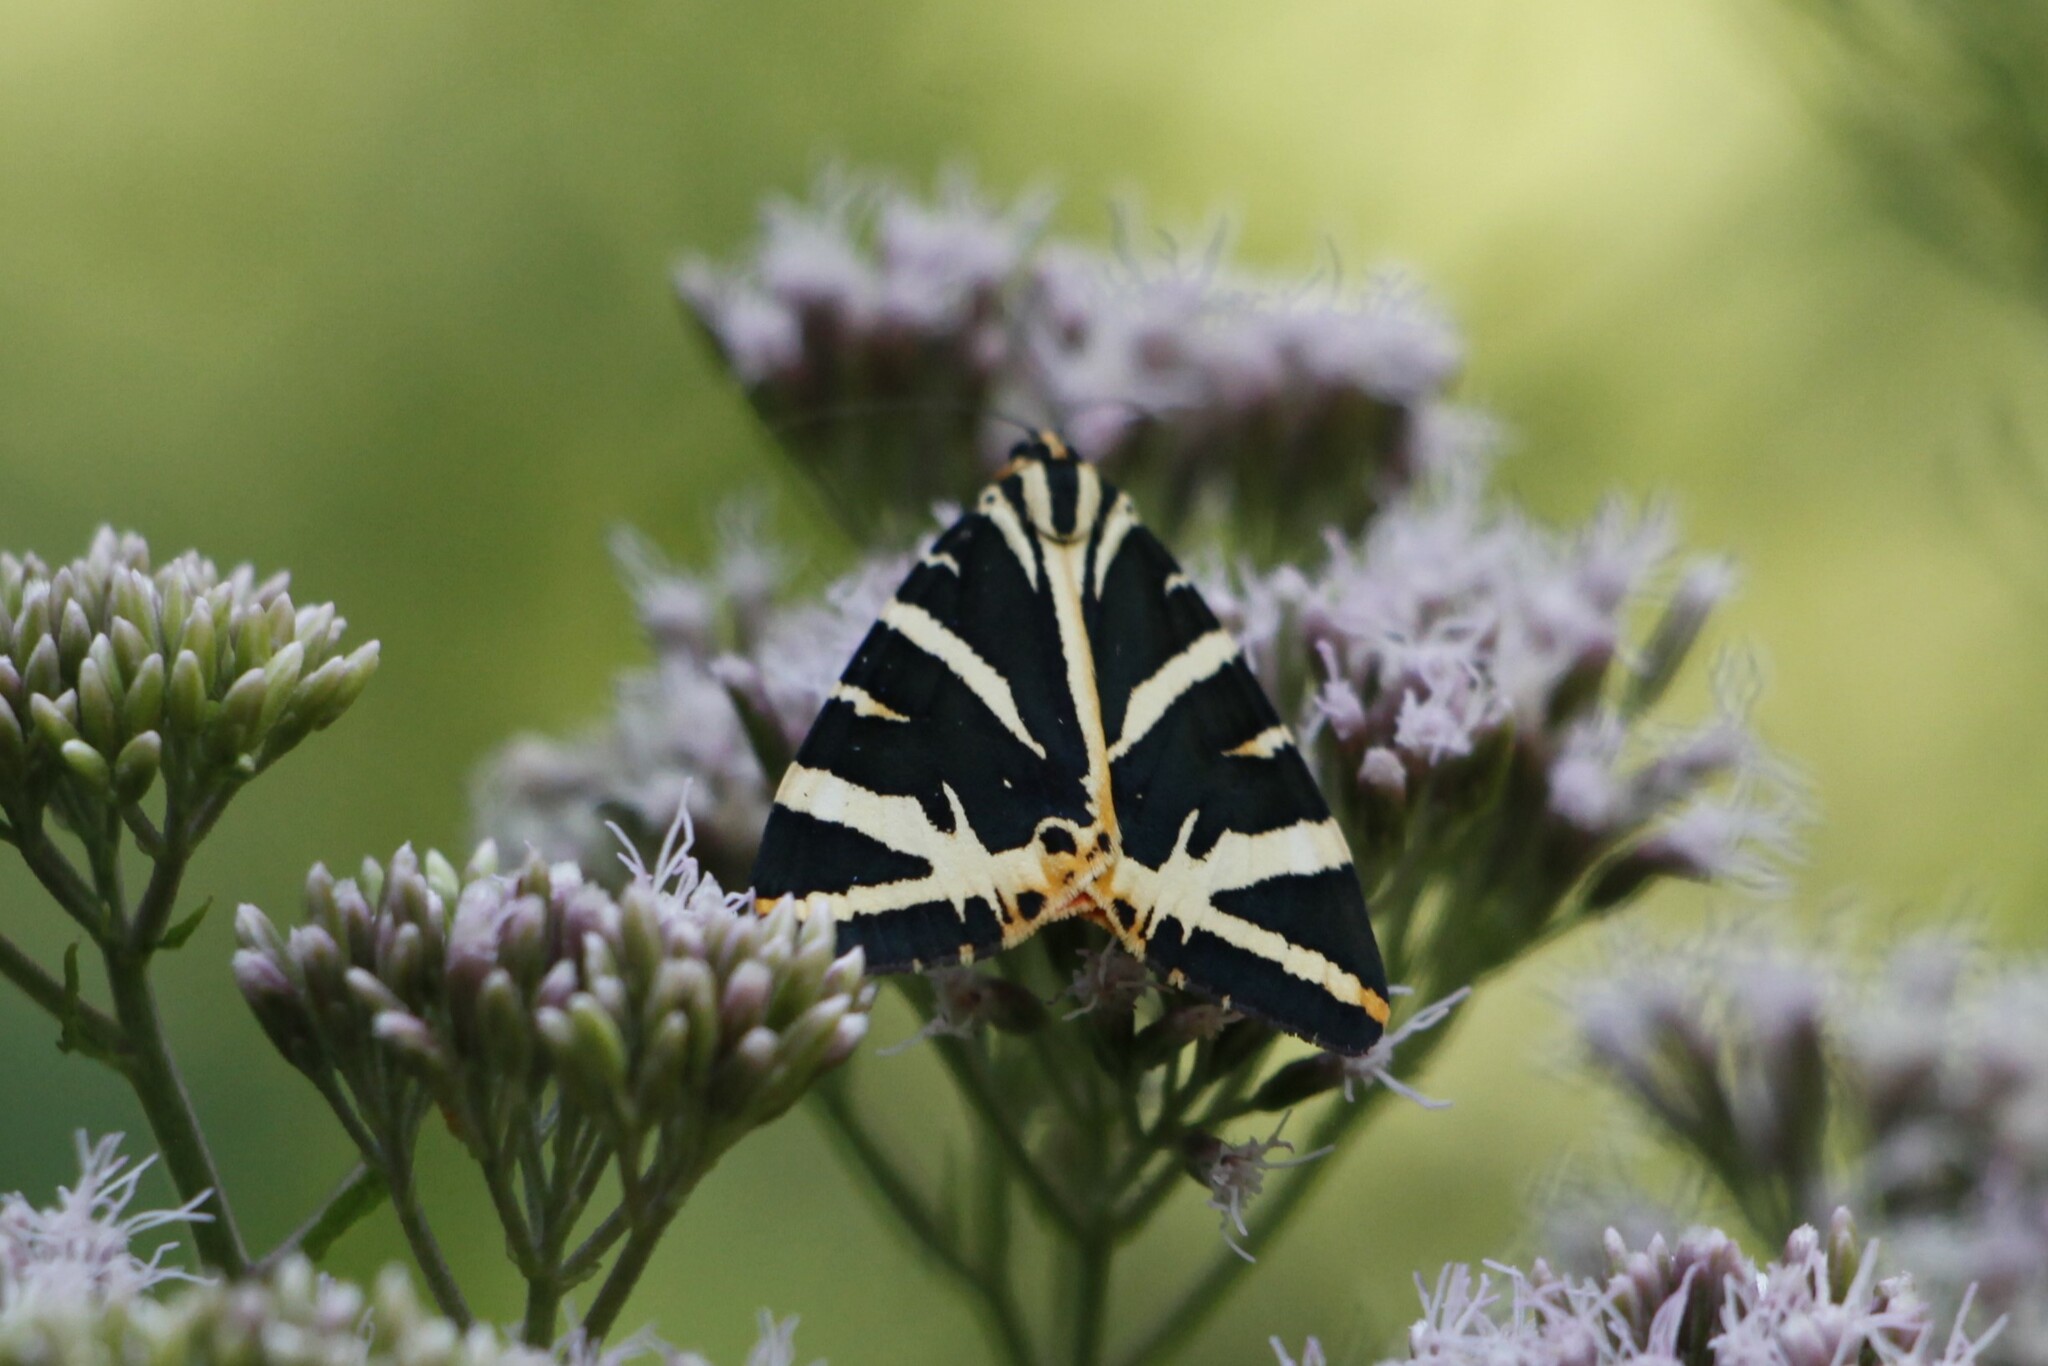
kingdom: Animalia
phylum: Arthropoda
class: Insecta
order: Lepidoptera
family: Erebidae
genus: Euplagia
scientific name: Euplagia quadripunctaria
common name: Jersey tiger
